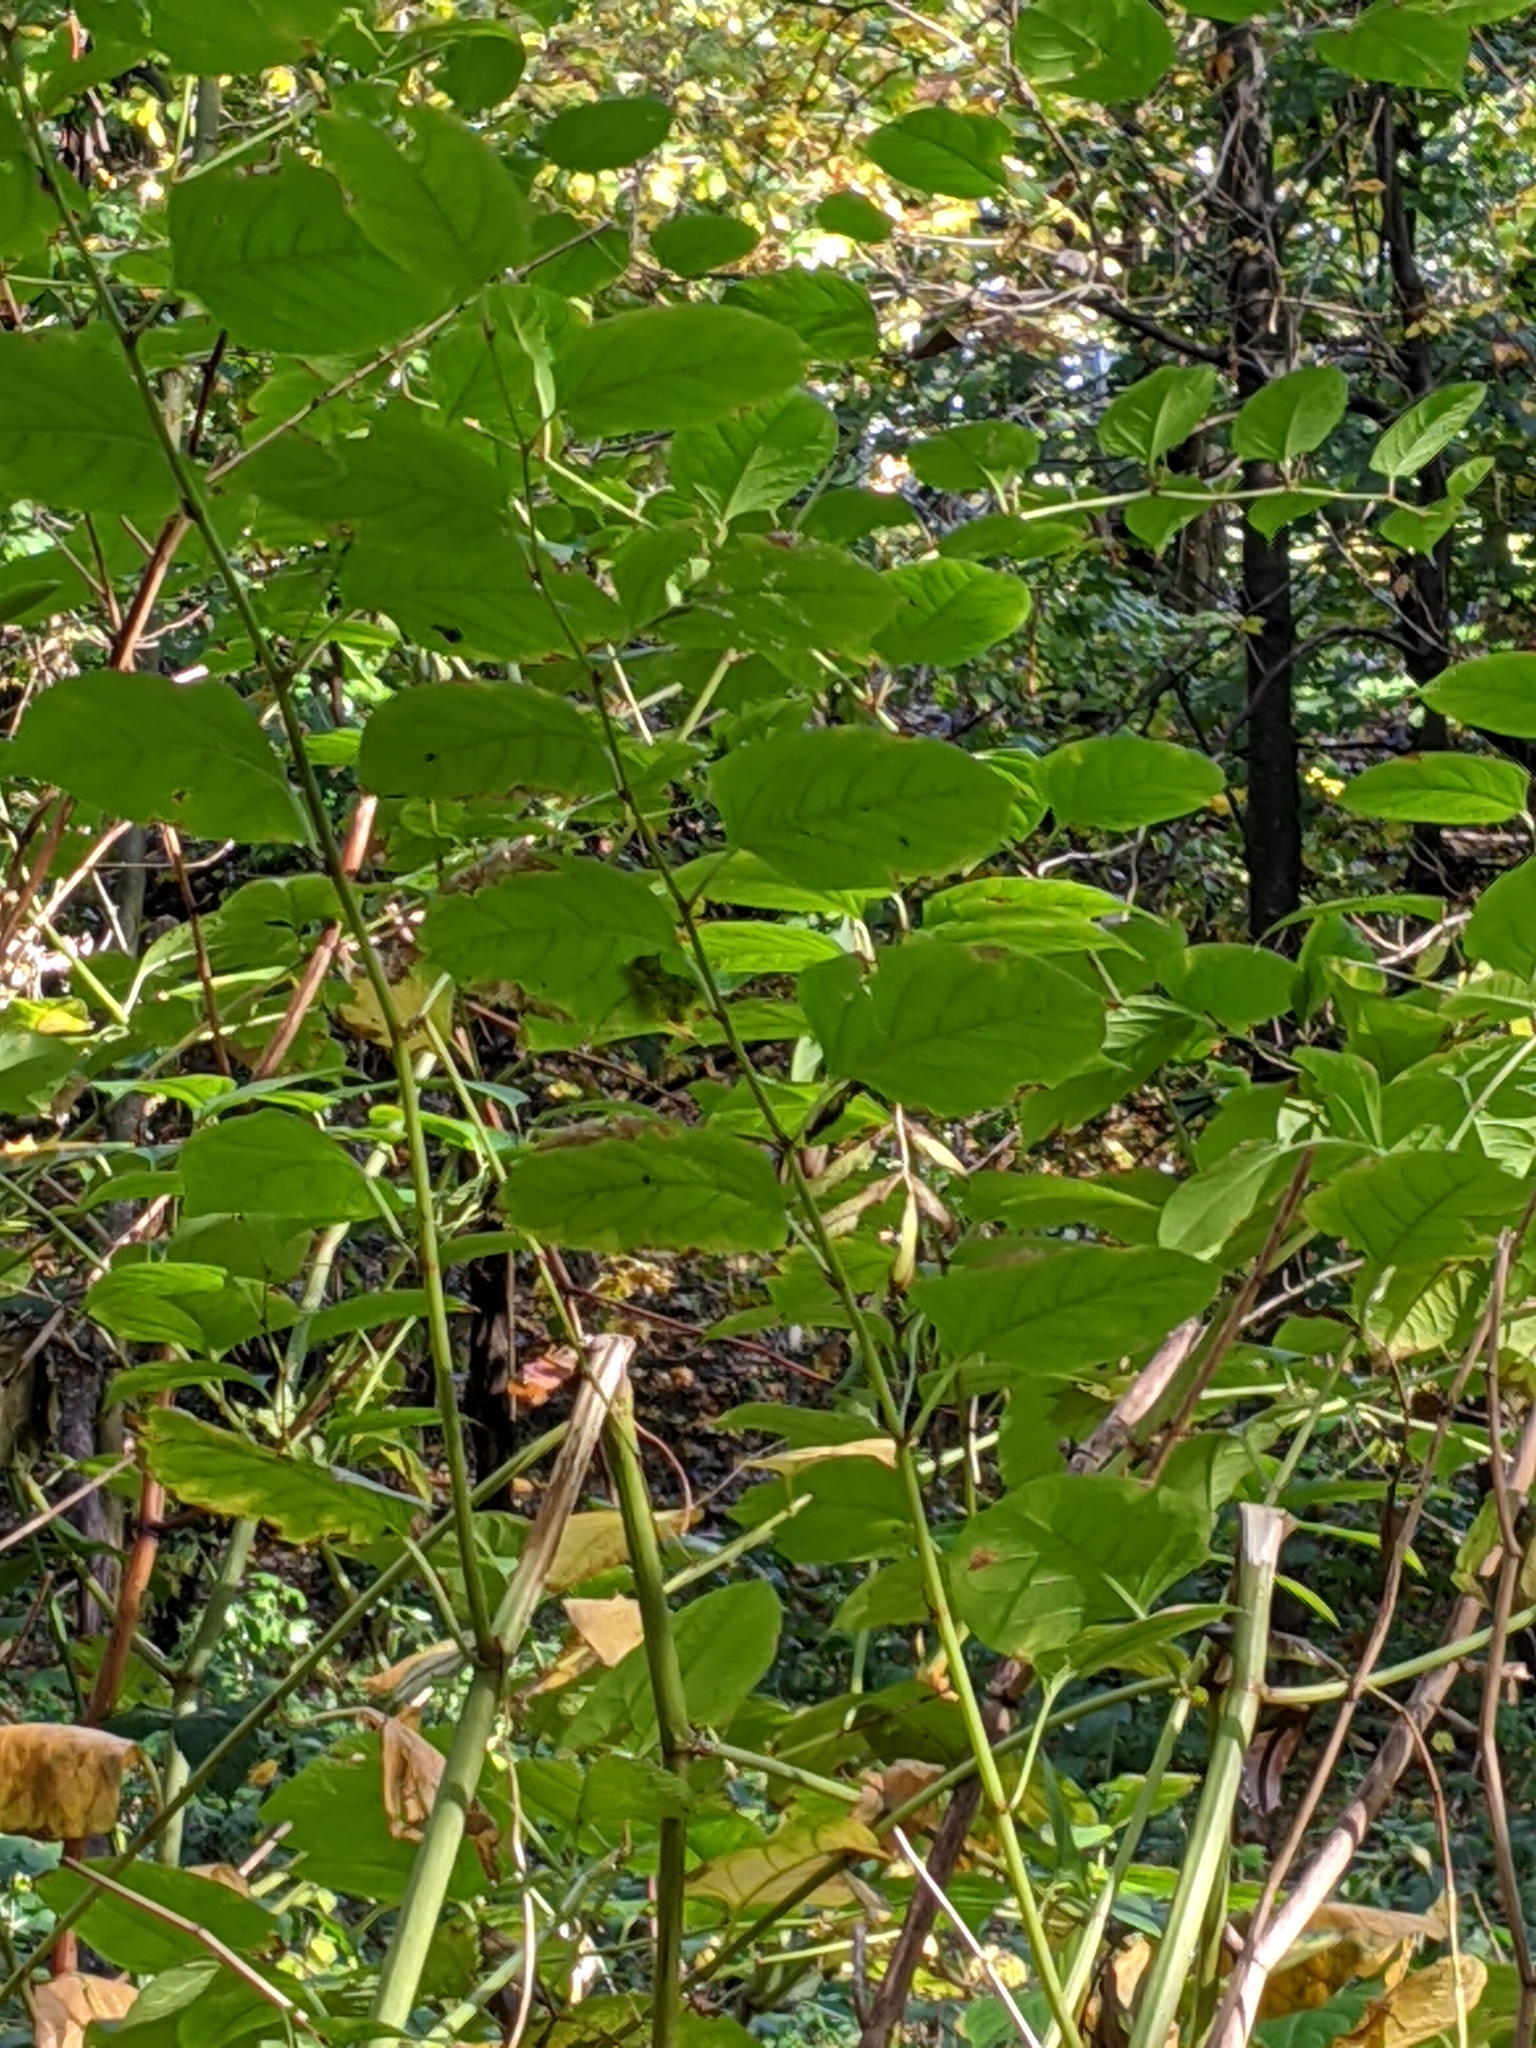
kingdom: Plantae
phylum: Tracheophyta
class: Magnoliopsida
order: Caryophyllales
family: Polygonaceae
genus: Reynoutria
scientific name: Reynoutria japonica
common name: Japanese knotweed
